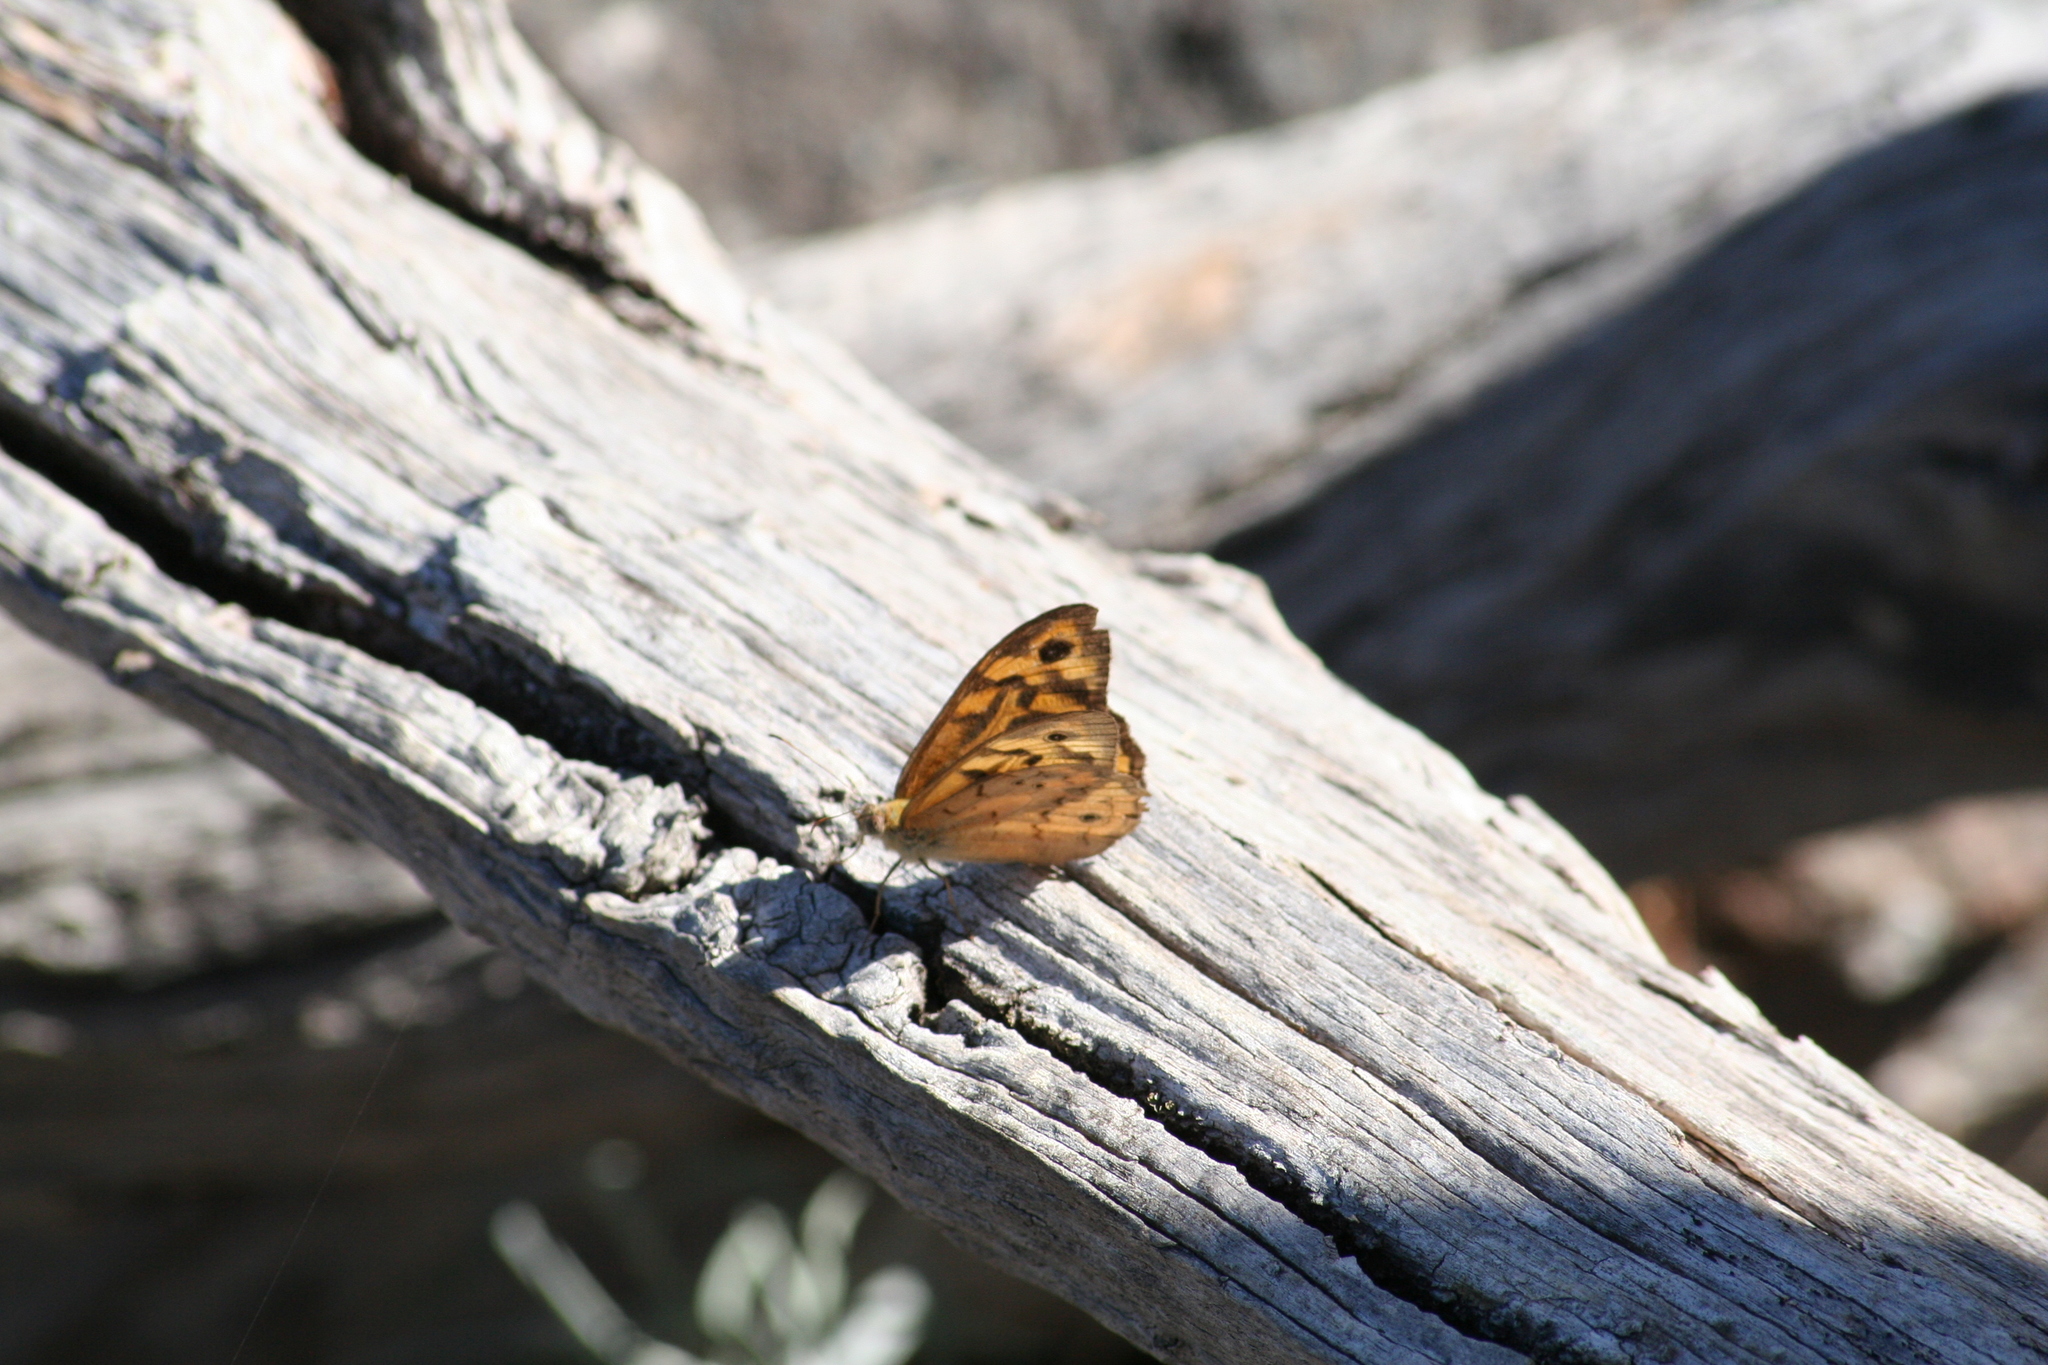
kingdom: Animalia
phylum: Arthropoda
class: Insecta
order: Lepidoptera
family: Nymphalidae
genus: Heteronympha
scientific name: Heteronympha merope
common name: Common brown
